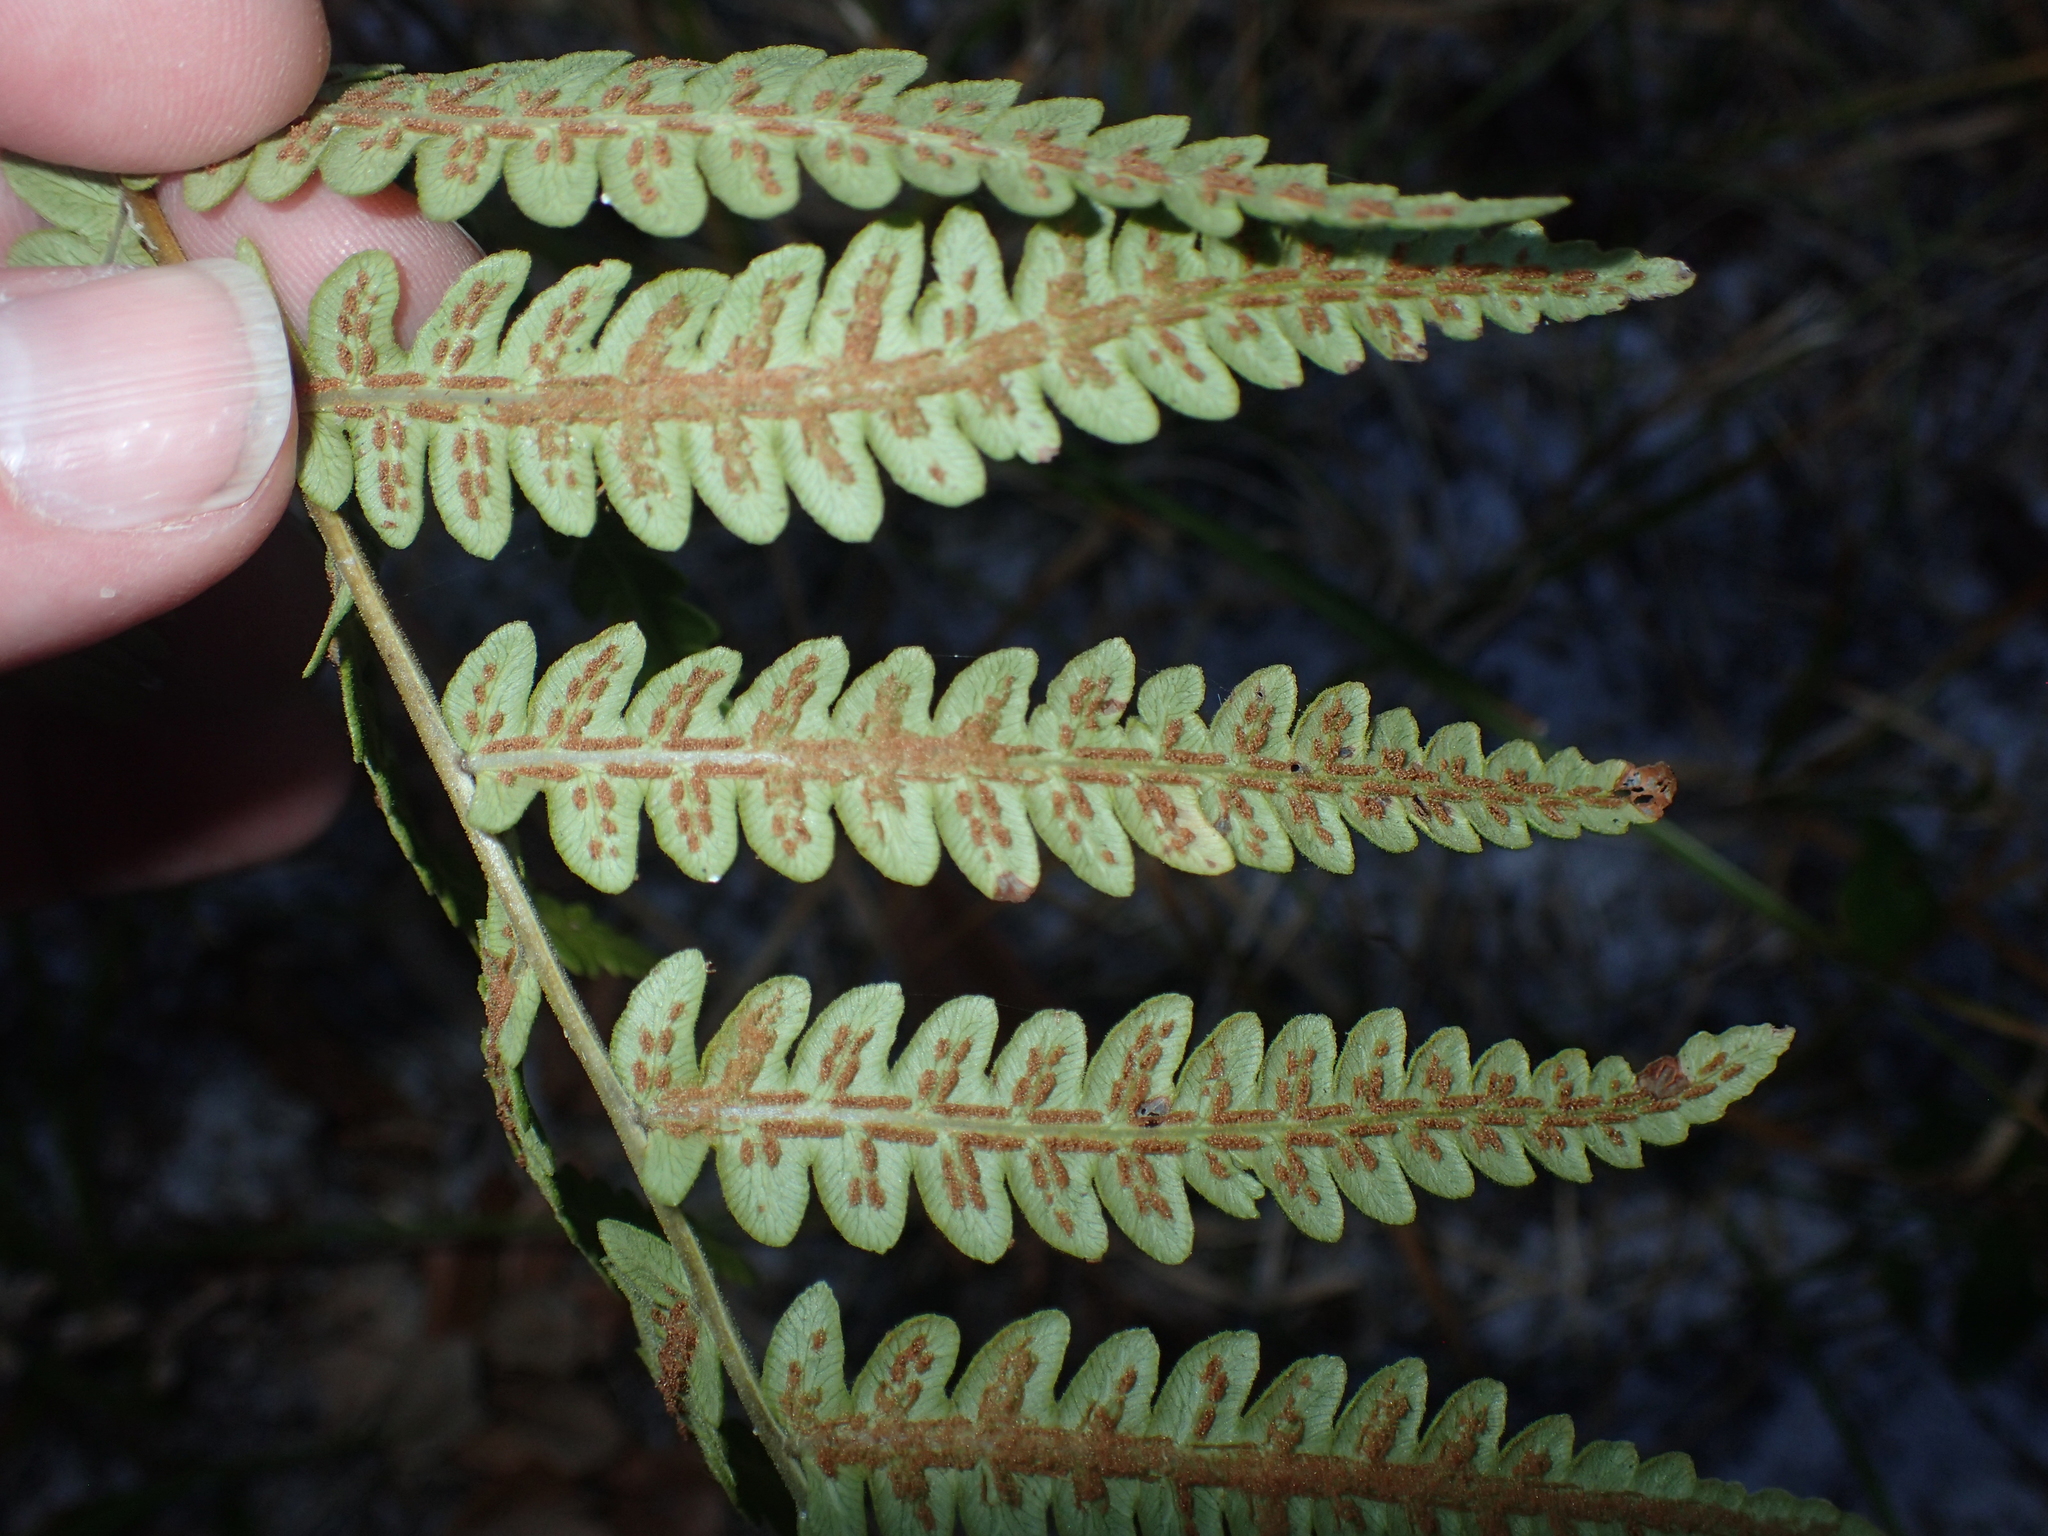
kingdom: Plantae
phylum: Tracheophyta
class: Polypodiopsida
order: Polypodiales
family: Blechnaceae
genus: Anchistea
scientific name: Anchistea virginica
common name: Virginia chain fern
